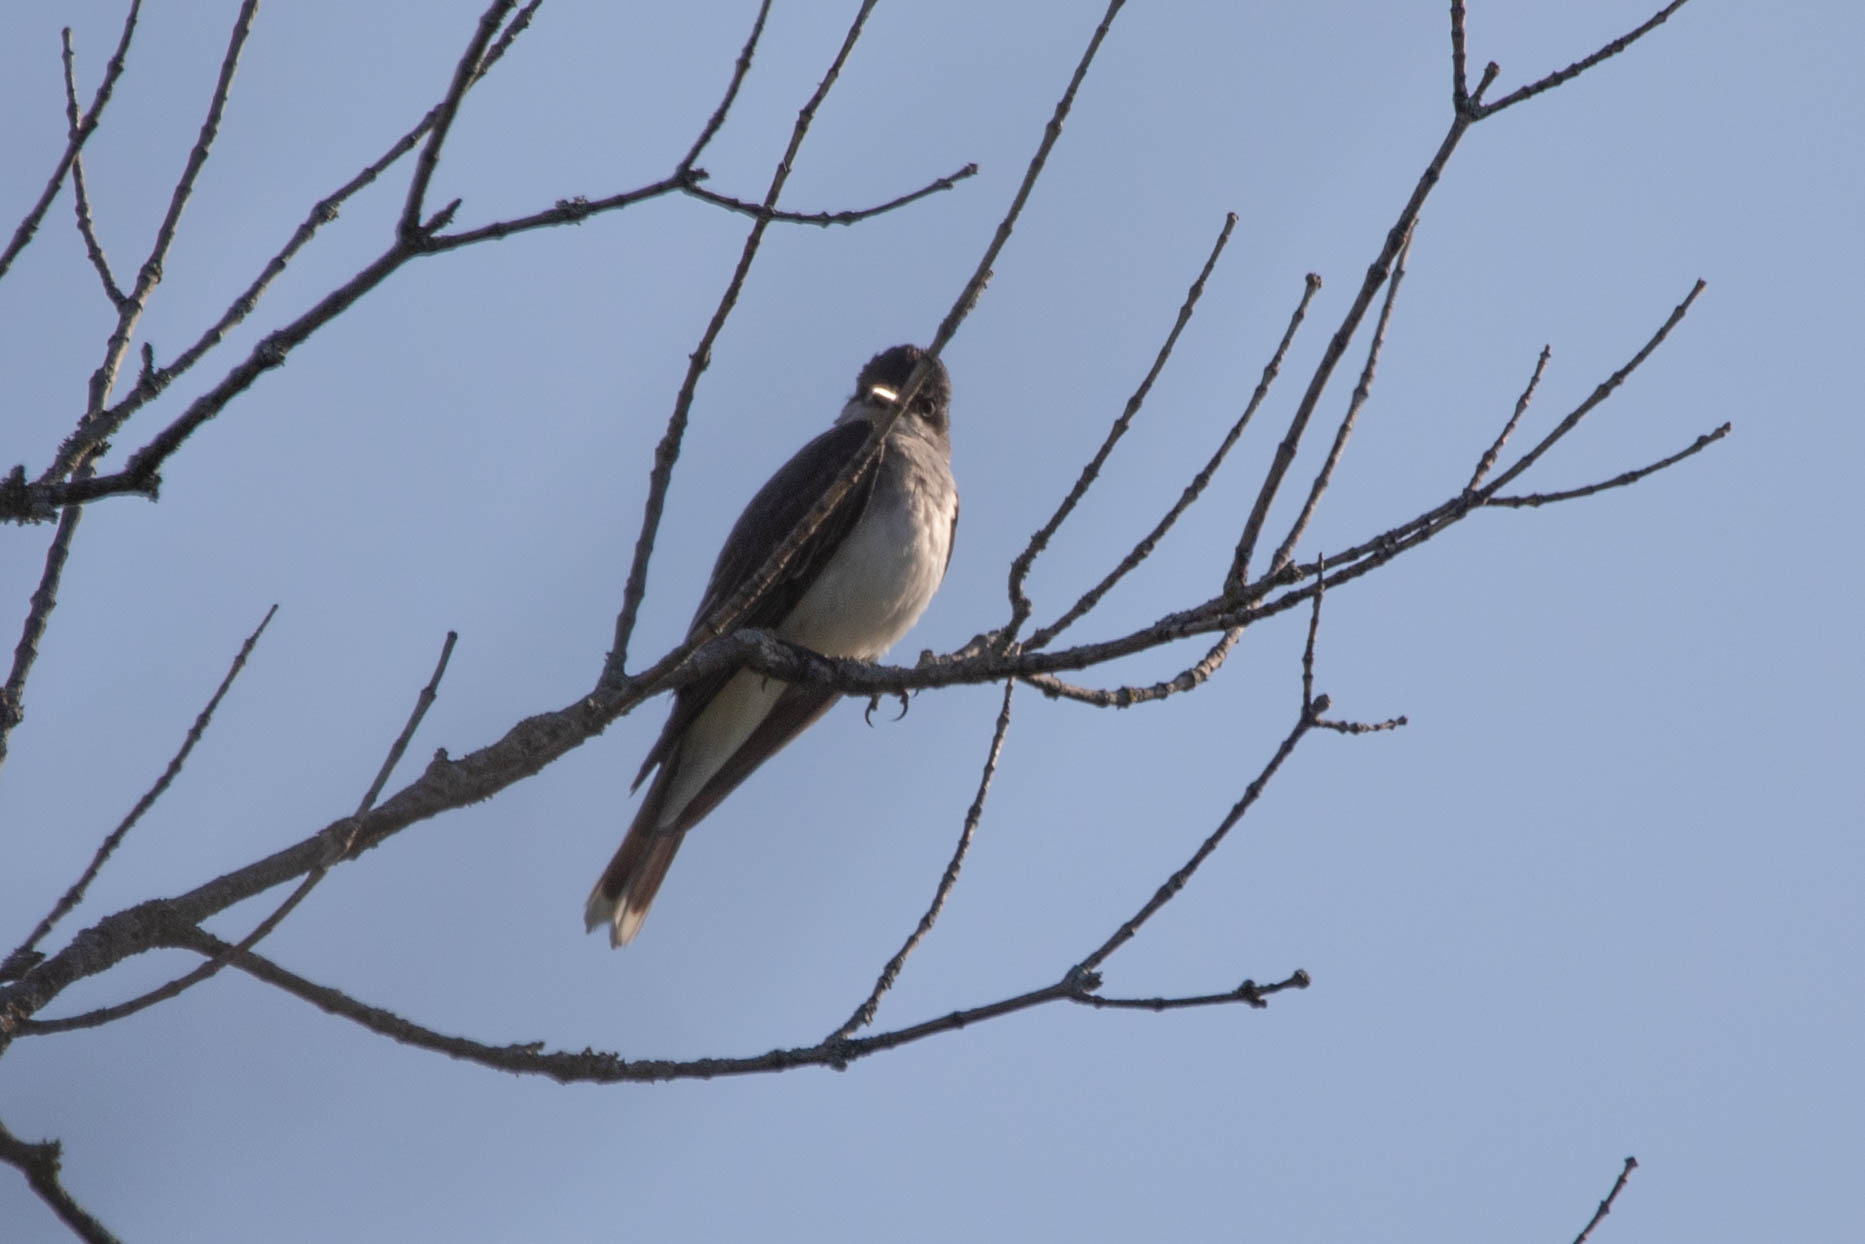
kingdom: Animalia
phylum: Chordata
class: Aves
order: Passeriformes
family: Tyrannidae
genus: Tyrannus
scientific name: Tyrannus tyrannus
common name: Eastern kingbird
